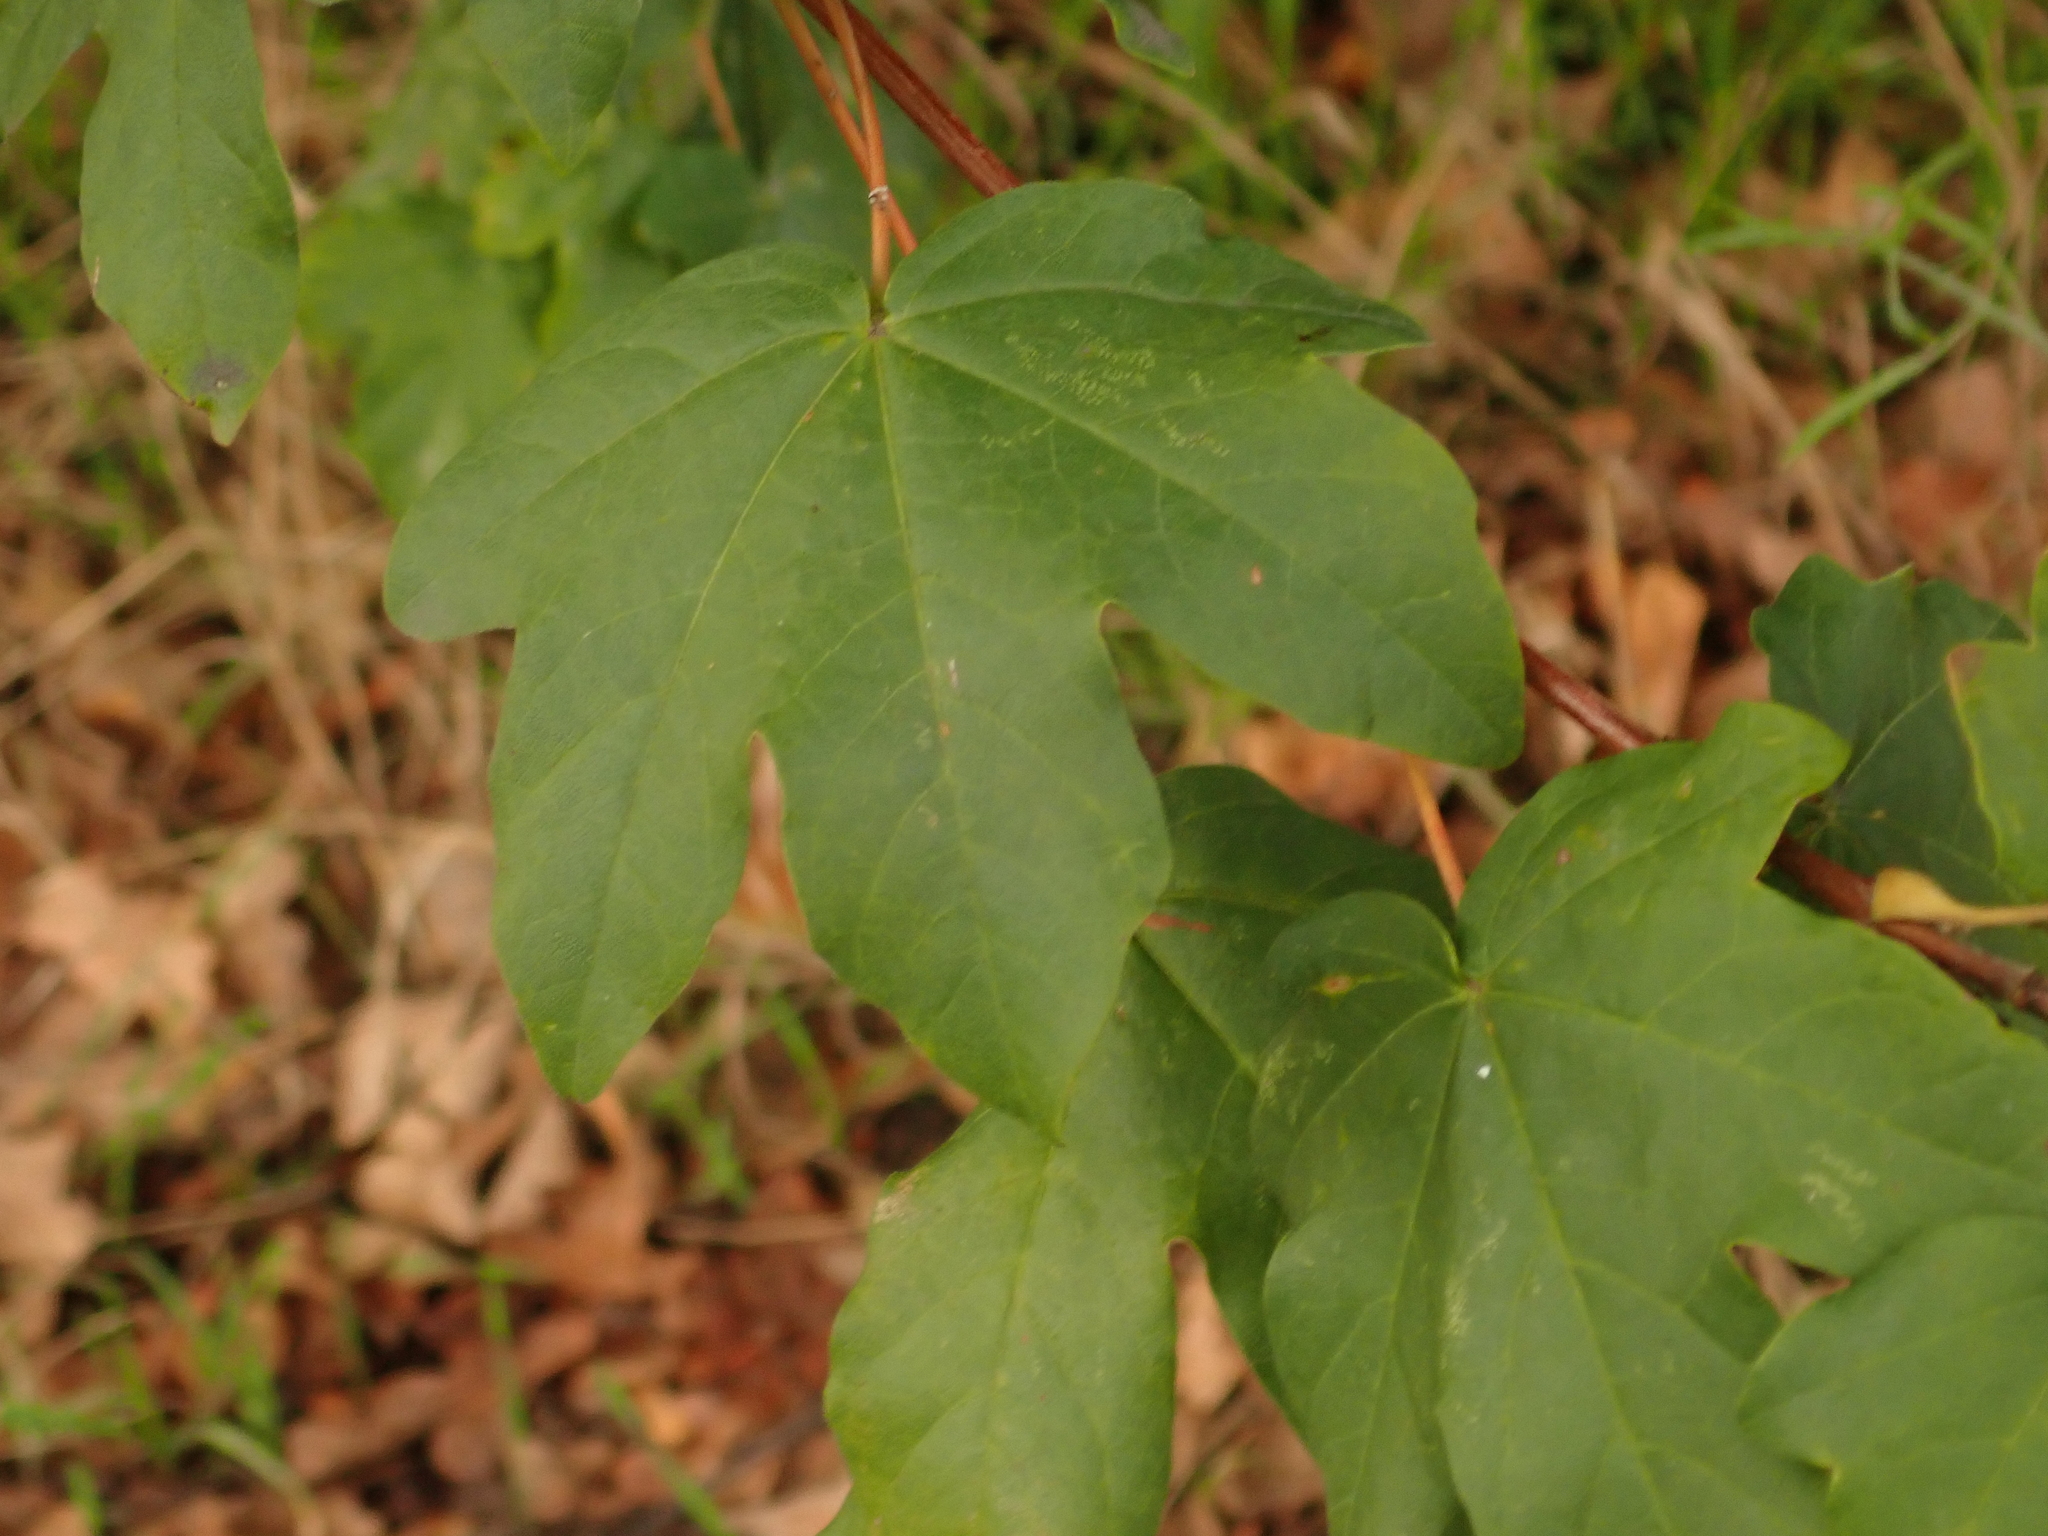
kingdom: Plantae
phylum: Tracheophyta
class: Magnoliopsida
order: Sapindales
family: Sapindaceae
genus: Acer
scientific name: Acer campestre
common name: Field maple
